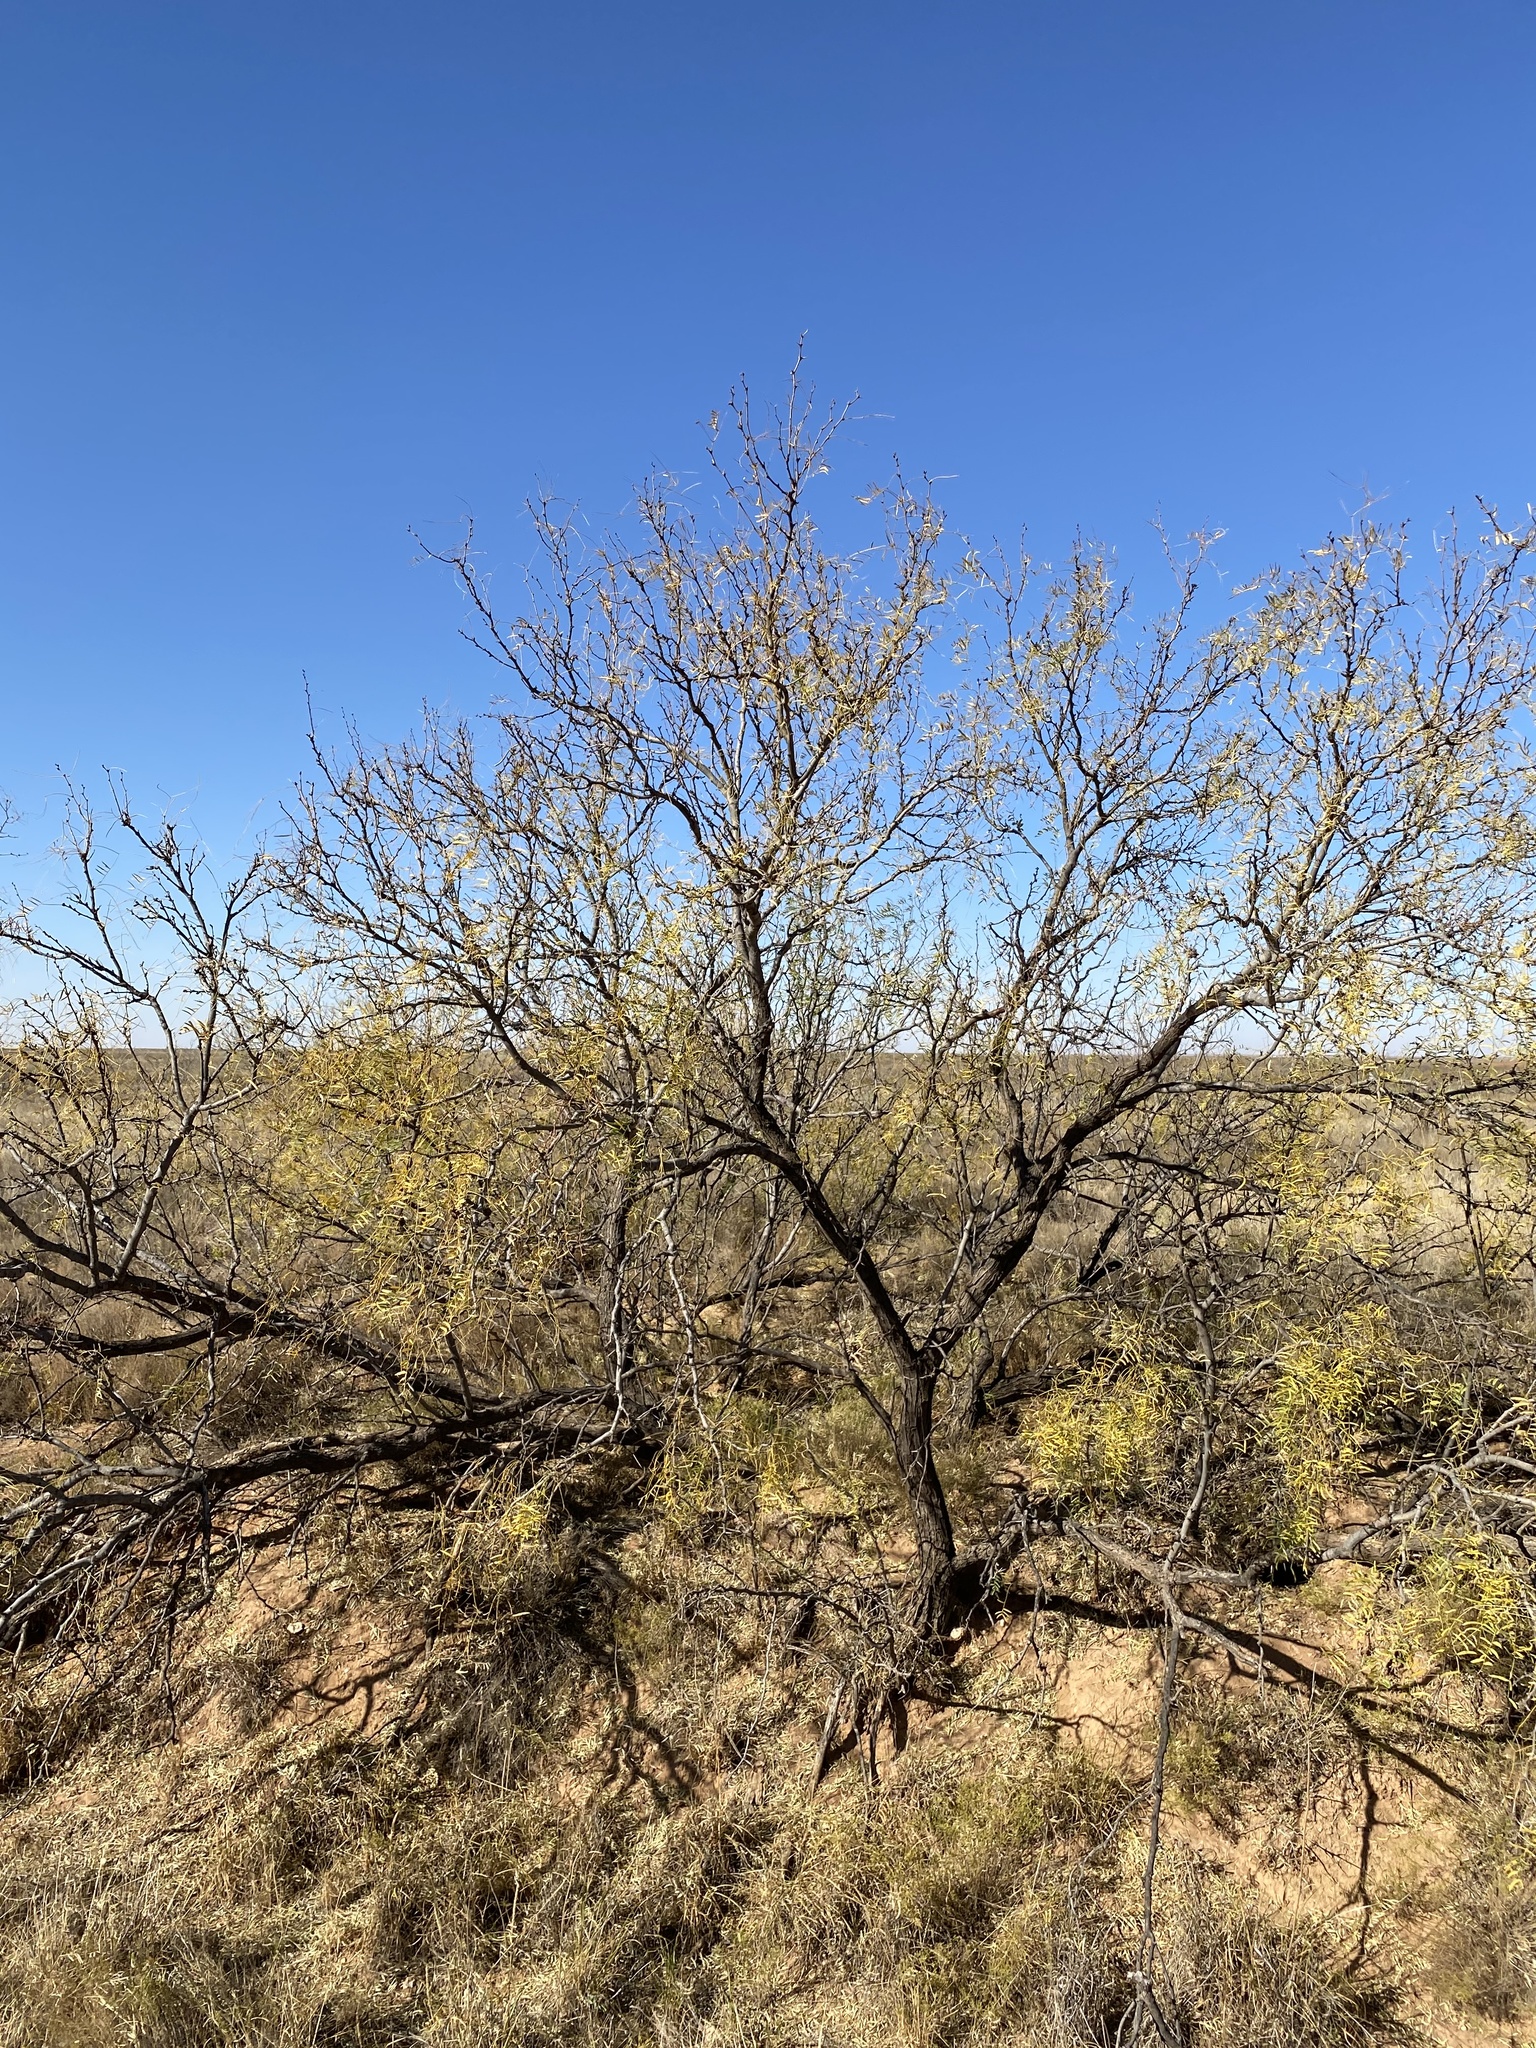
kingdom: Plantae
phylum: Tracheophyta
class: Magnoliopsida
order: Fabales
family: Fabaceae
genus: Prosopis
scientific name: Prosopis glandulosa
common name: Honey mesquite
